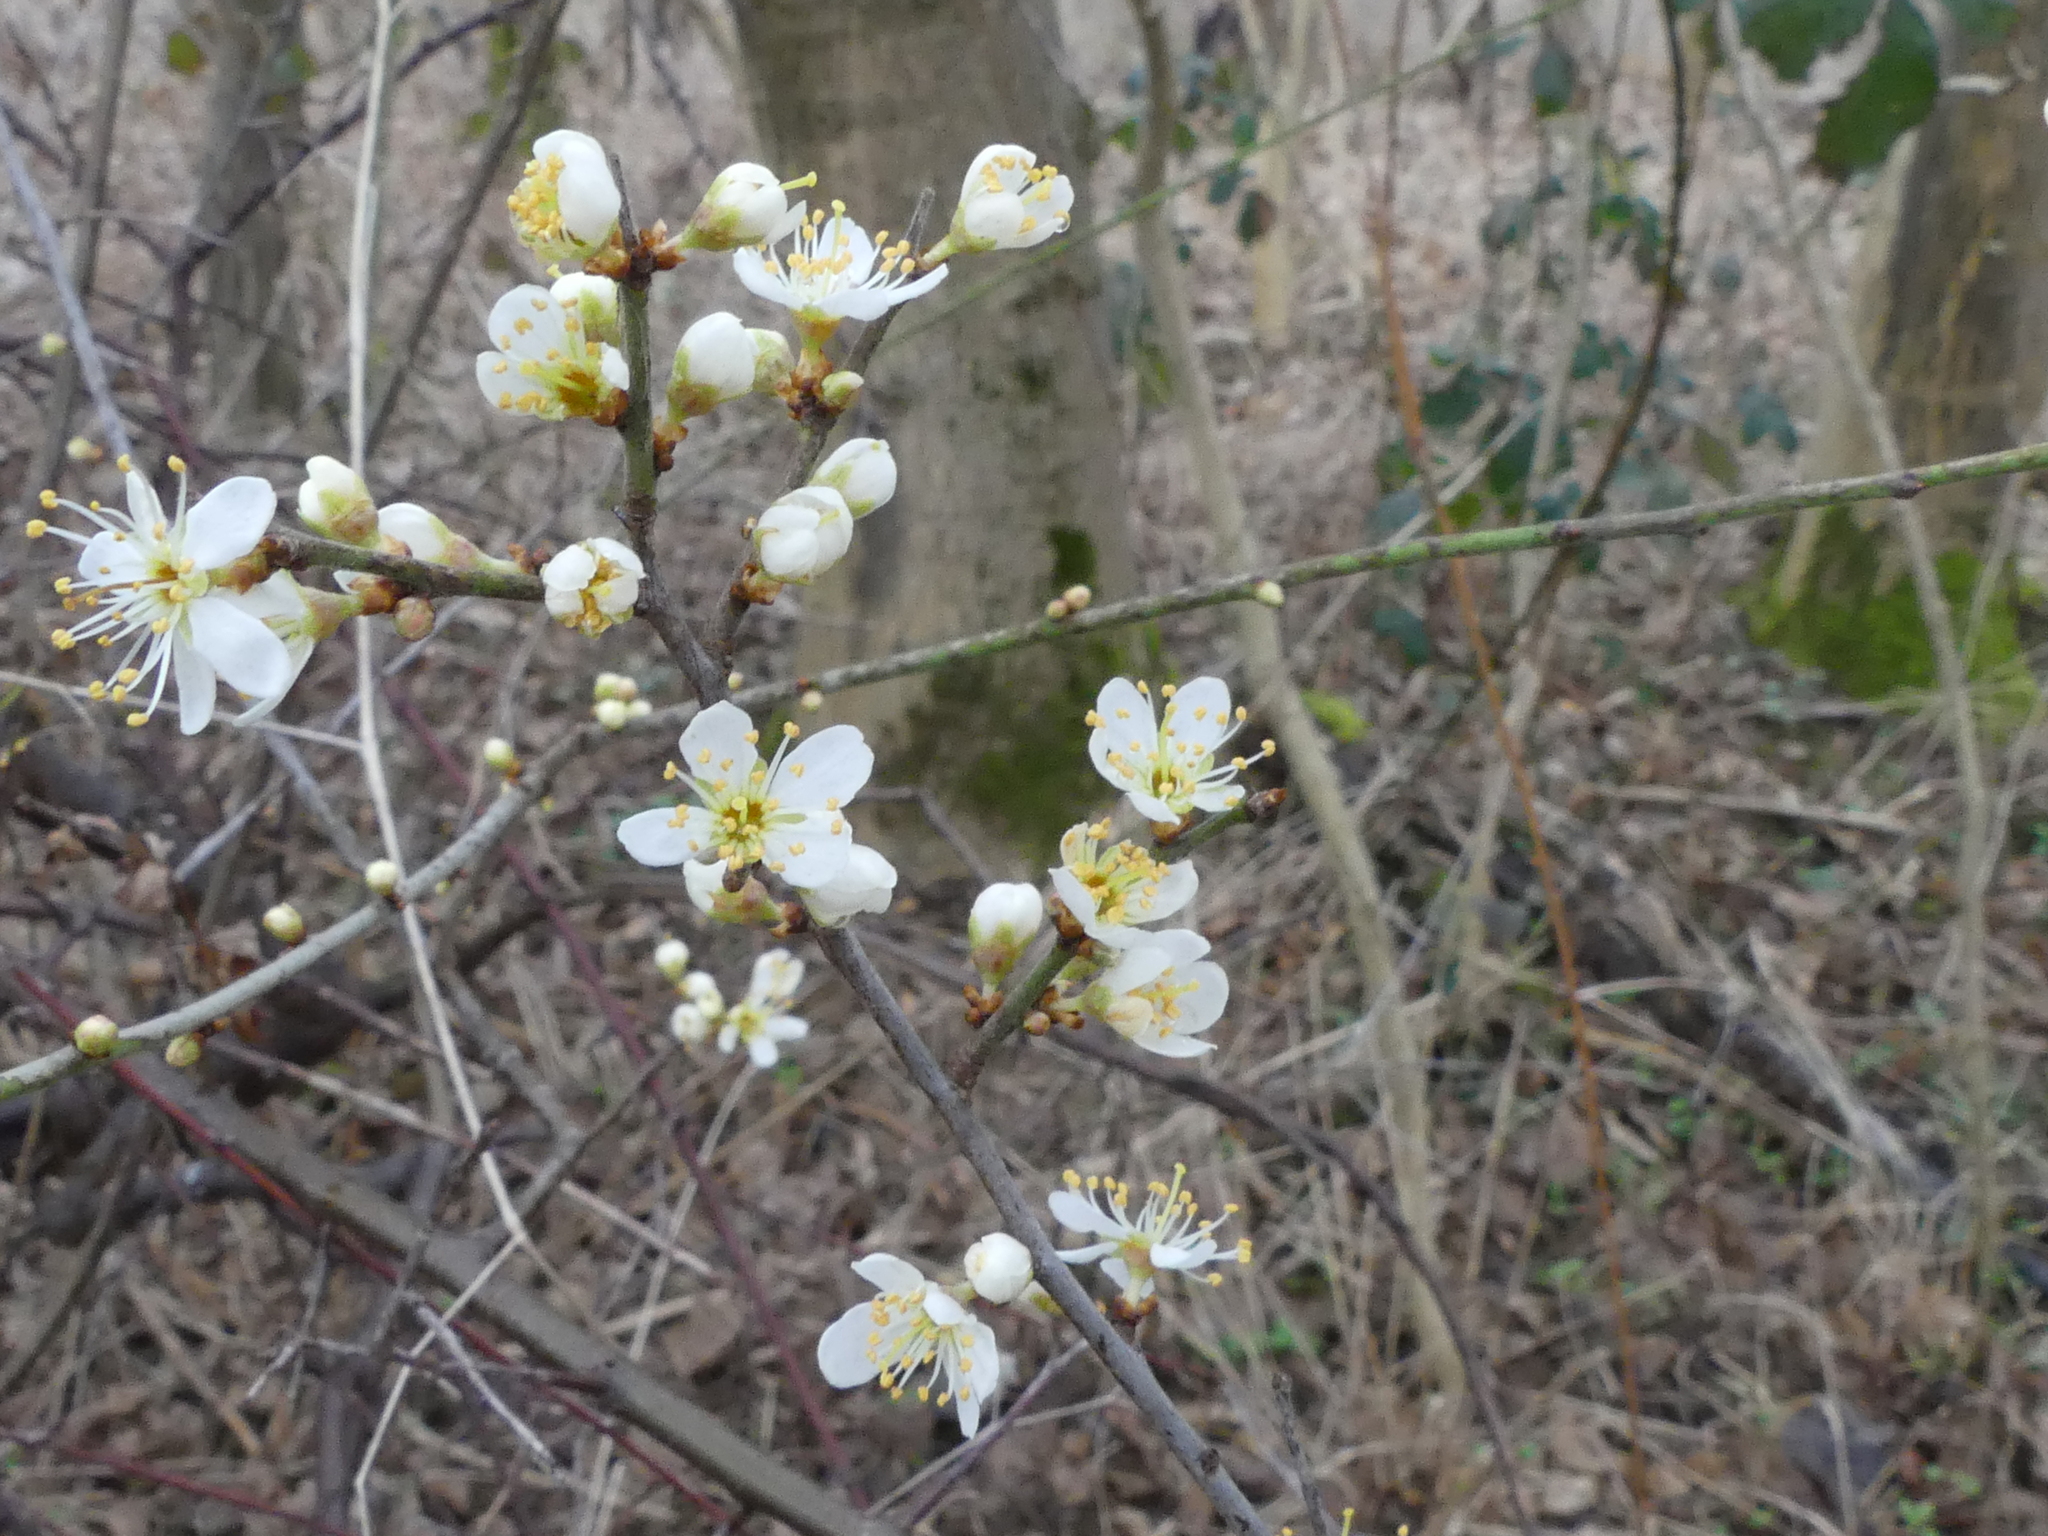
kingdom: Plantae
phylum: Tracheophyta
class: Magnoliopsida
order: Rosales
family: Rosaceae
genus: Prunus
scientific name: Prunus spinosa
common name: Blackthorn
